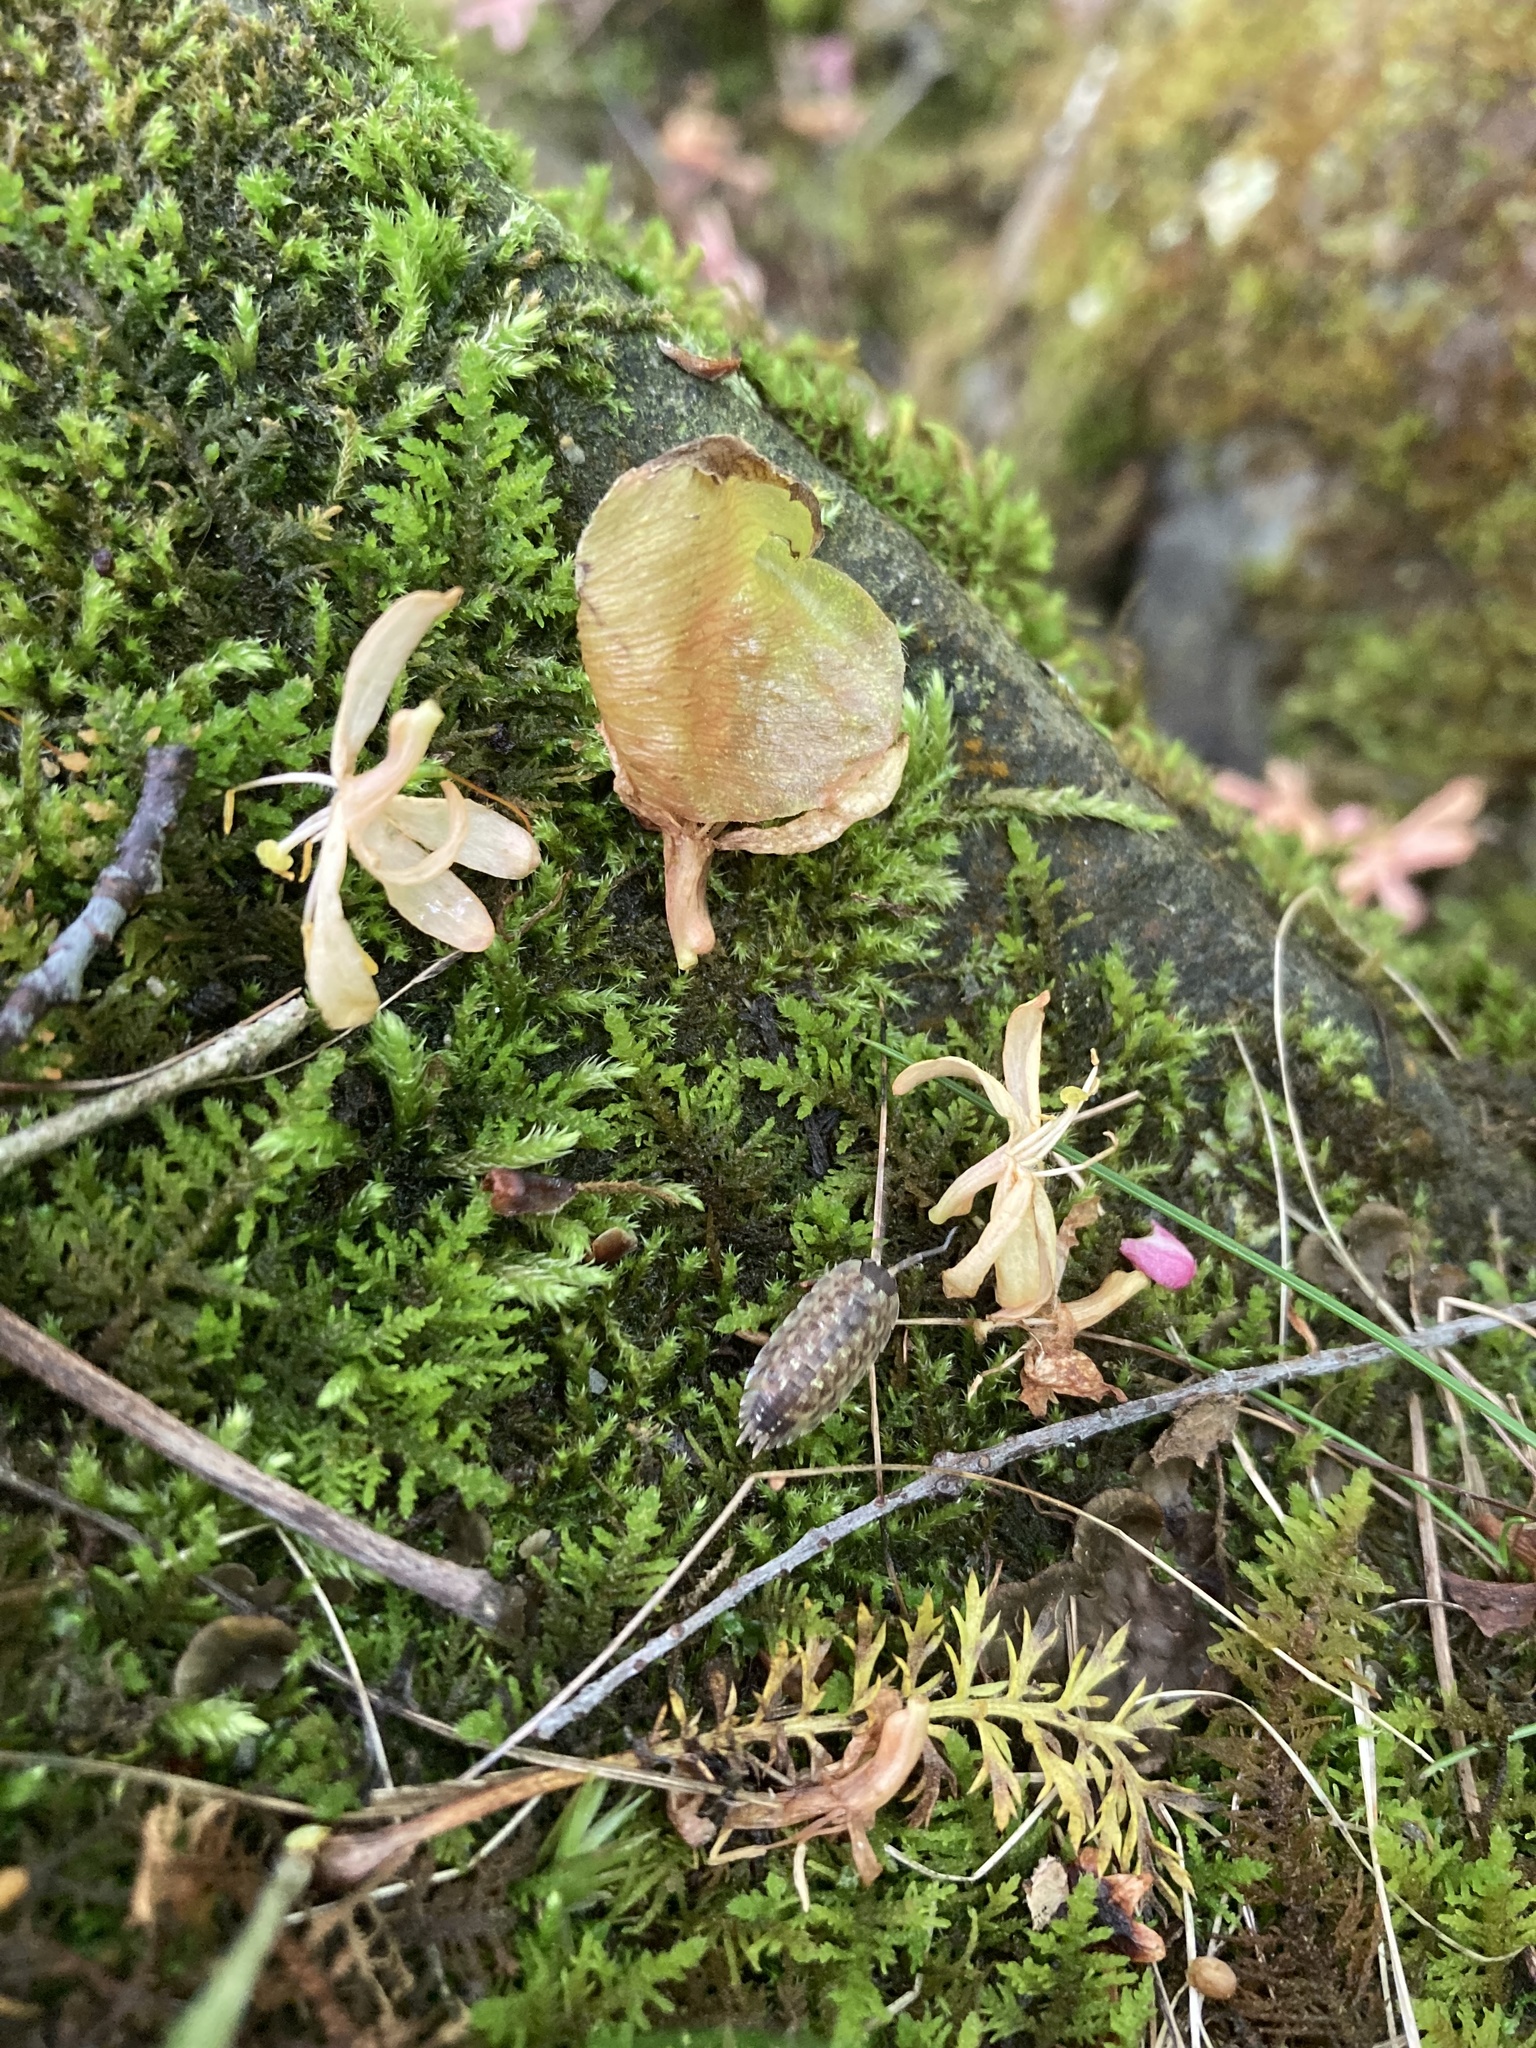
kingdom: Animalia
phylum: Arthropoda
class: Malacostraca
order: Isopoda
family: Porcellionidae
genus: Porcellio
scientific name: Porcellio spinicornis
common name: Painted woodlouse
